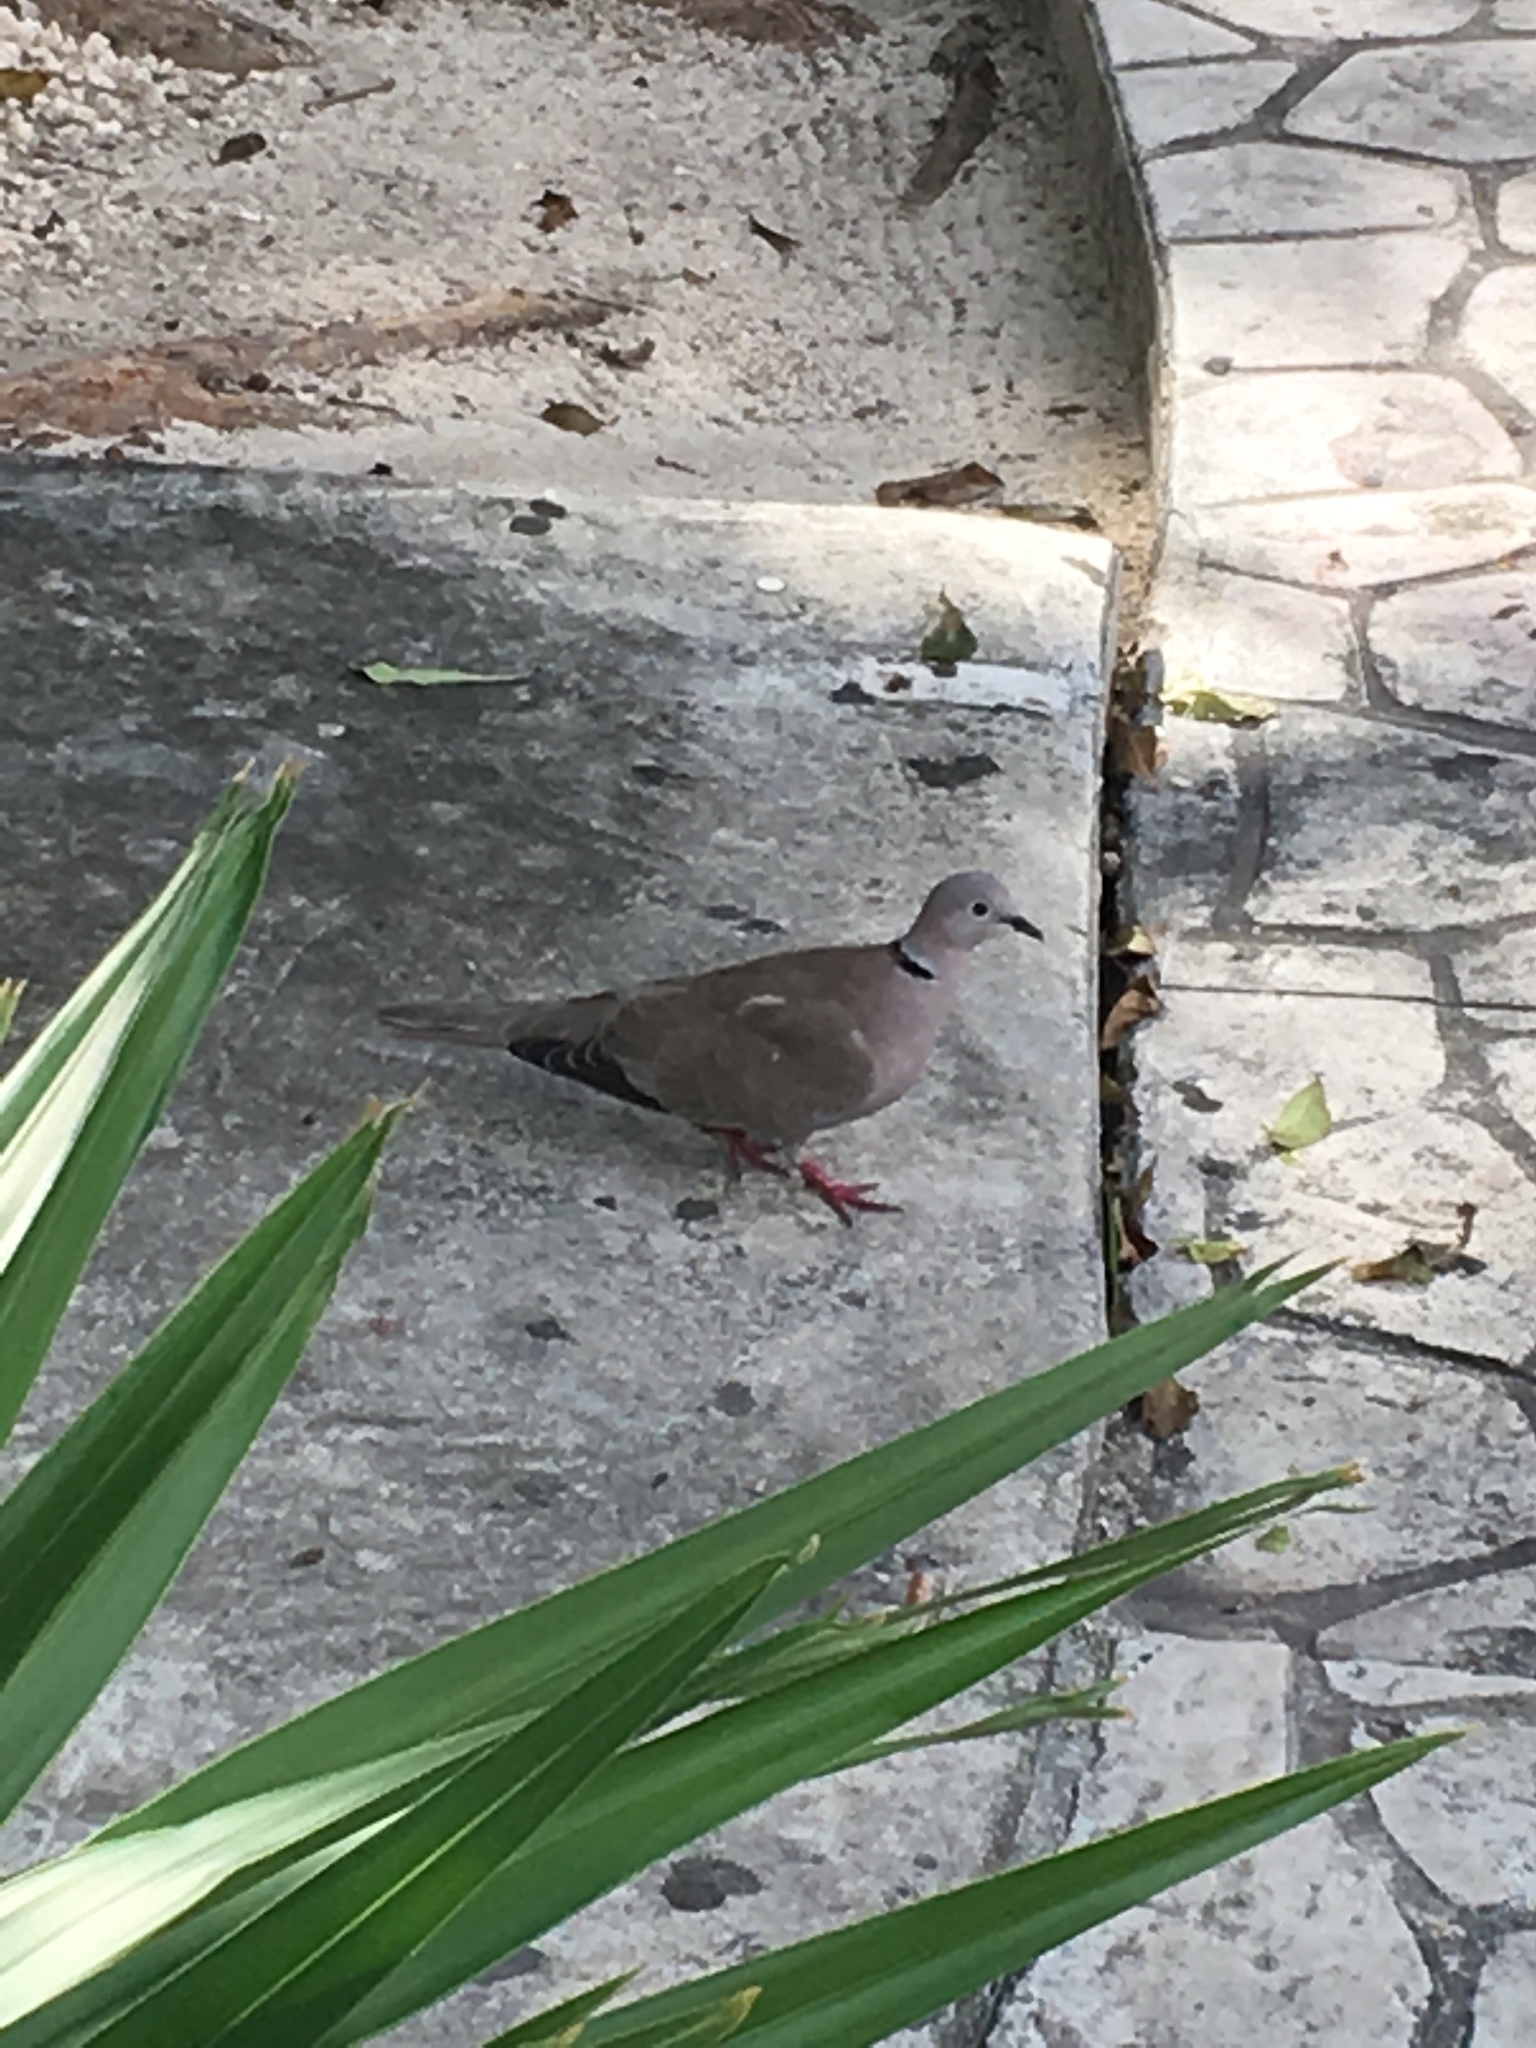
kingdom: Animalia
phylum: Chordata
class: Aves
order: Columbiformes
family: Columbidae
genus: Streptopelia
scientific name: Streptopelia decaocto
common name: Eurasian collared dove
